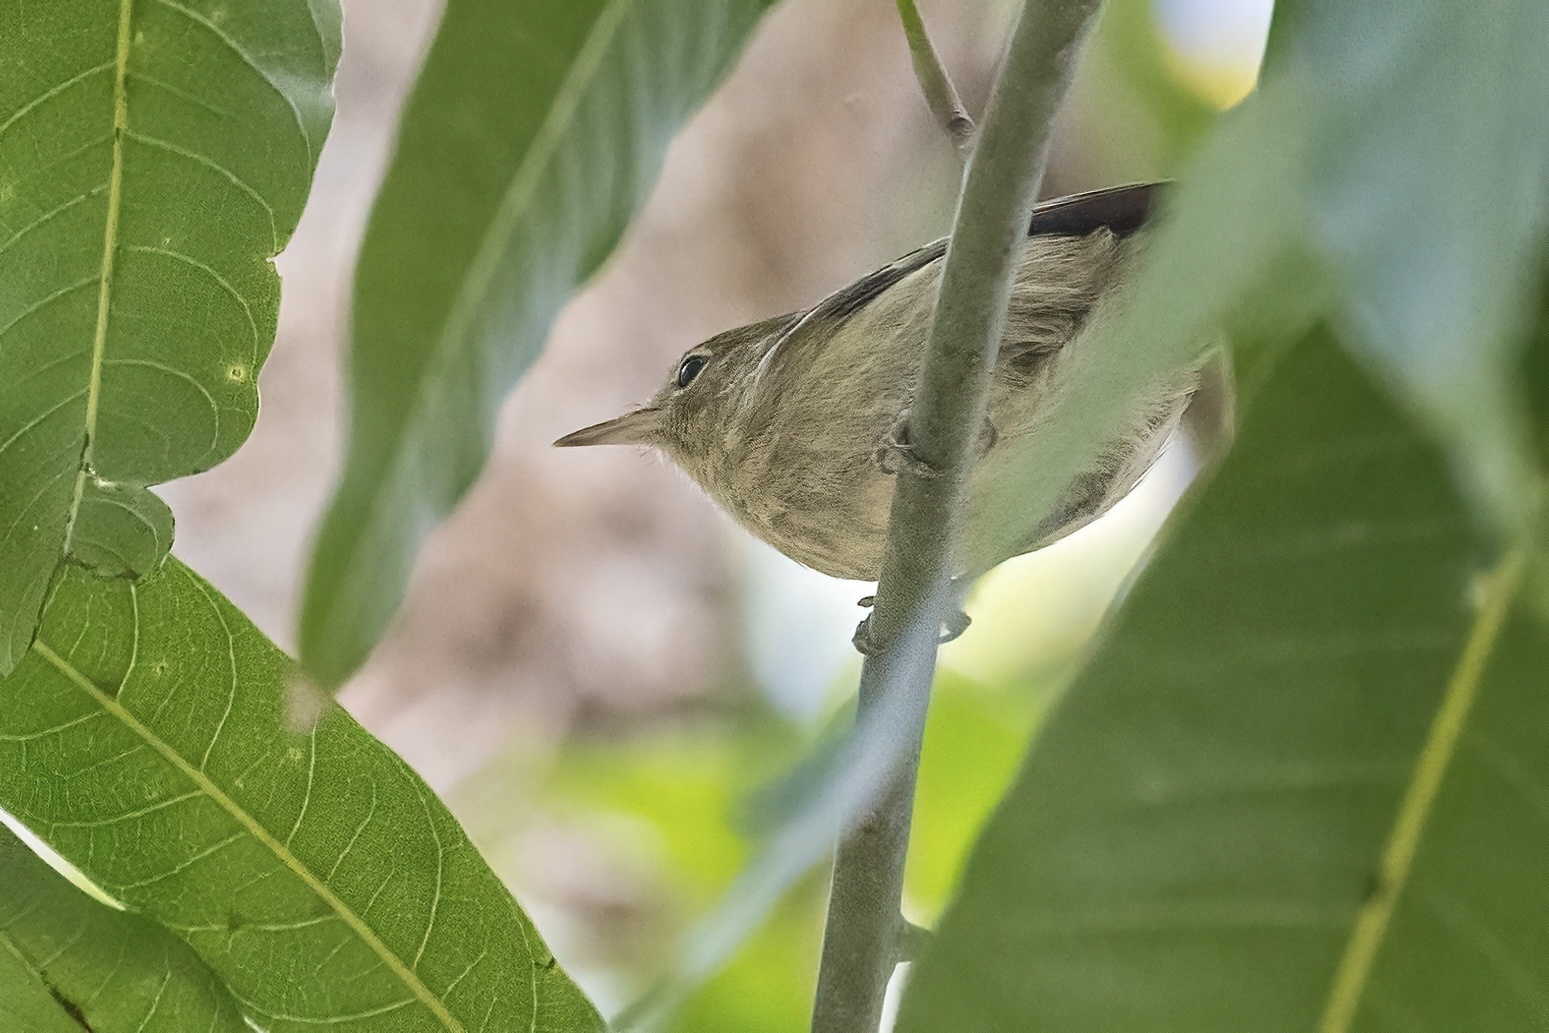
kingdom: Animalia
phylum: Chordata
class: Aves
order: Passeriformes
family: Parulidae
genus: Setophaga
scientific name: Setophaga angelae
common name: Elfin woods warbler
